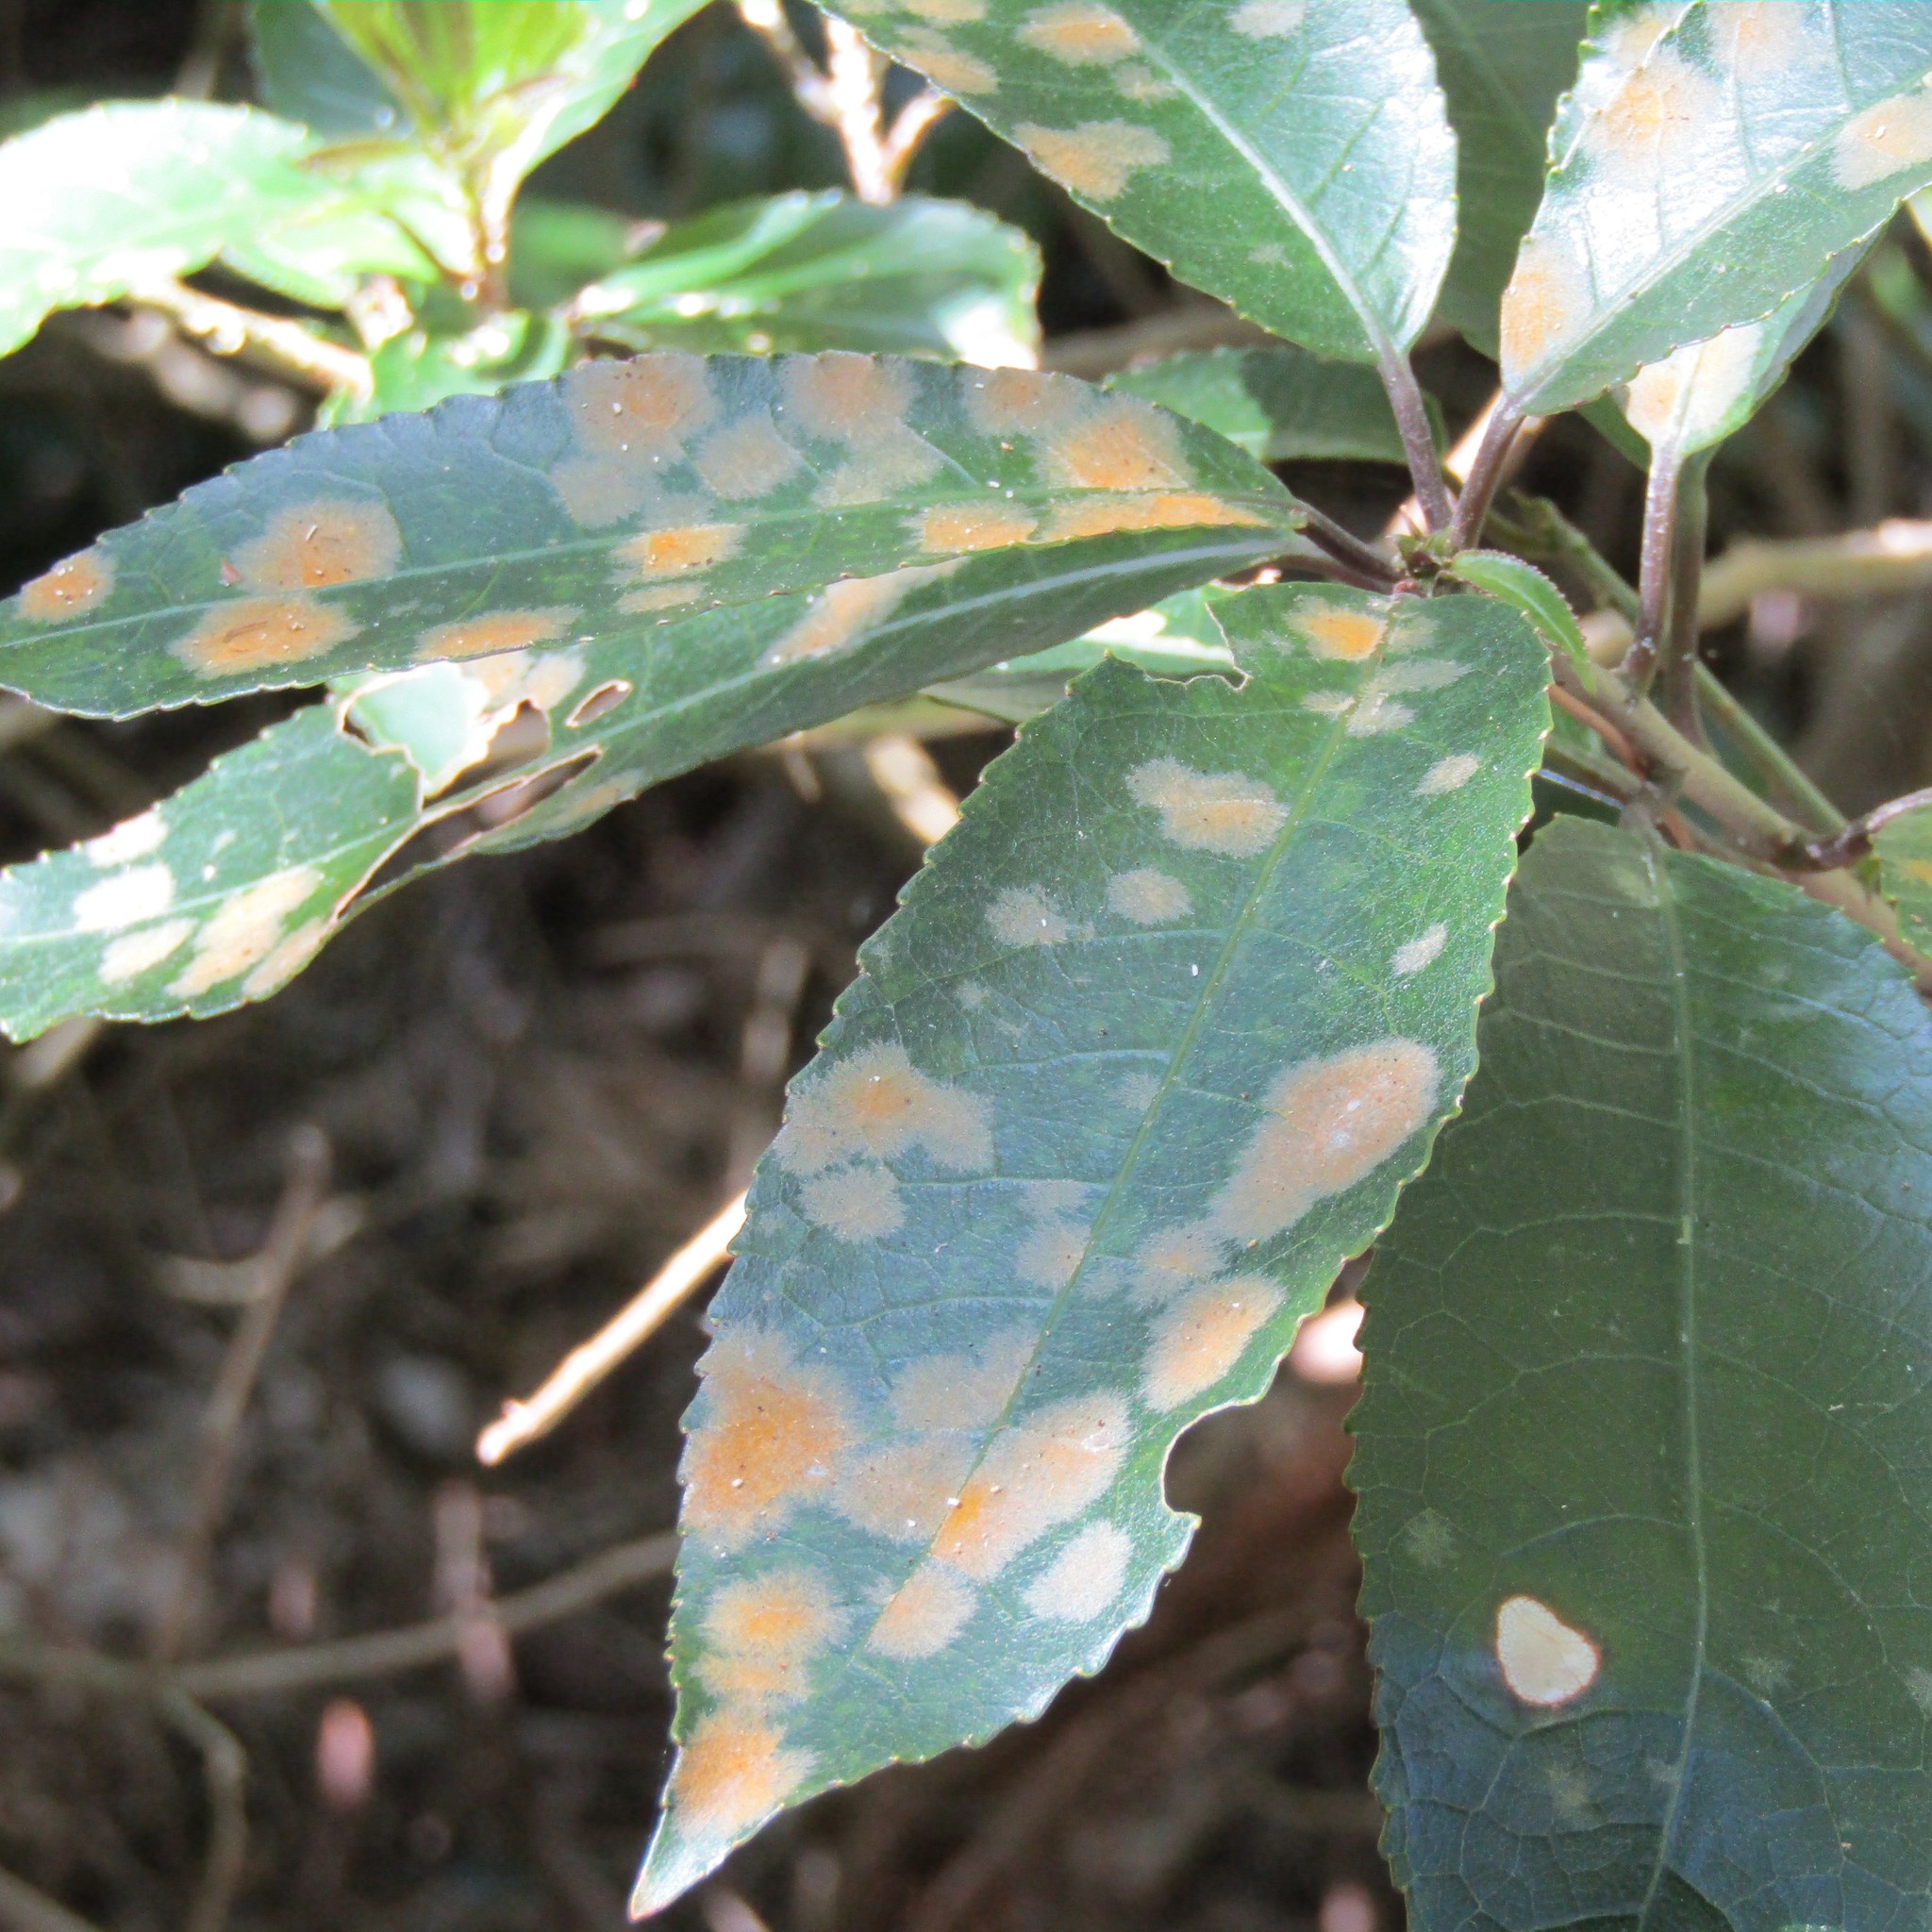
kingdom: Plantae
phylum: Chlorophyta
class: Ulvophyceae
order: Trentepohliales
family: Trentepohliaceae
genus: Cephaleuros
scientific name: Cephaleuros
